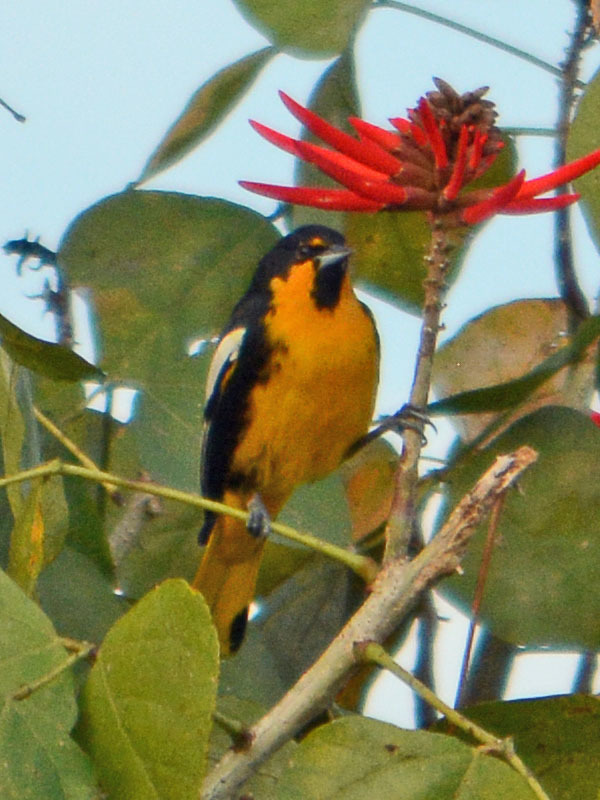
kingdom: Animalia
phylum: Chordata
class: Aves
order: Passeriformes
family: Icteridae
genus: Icterus
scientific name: Icterus abeillei
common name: Black-backed oriole
